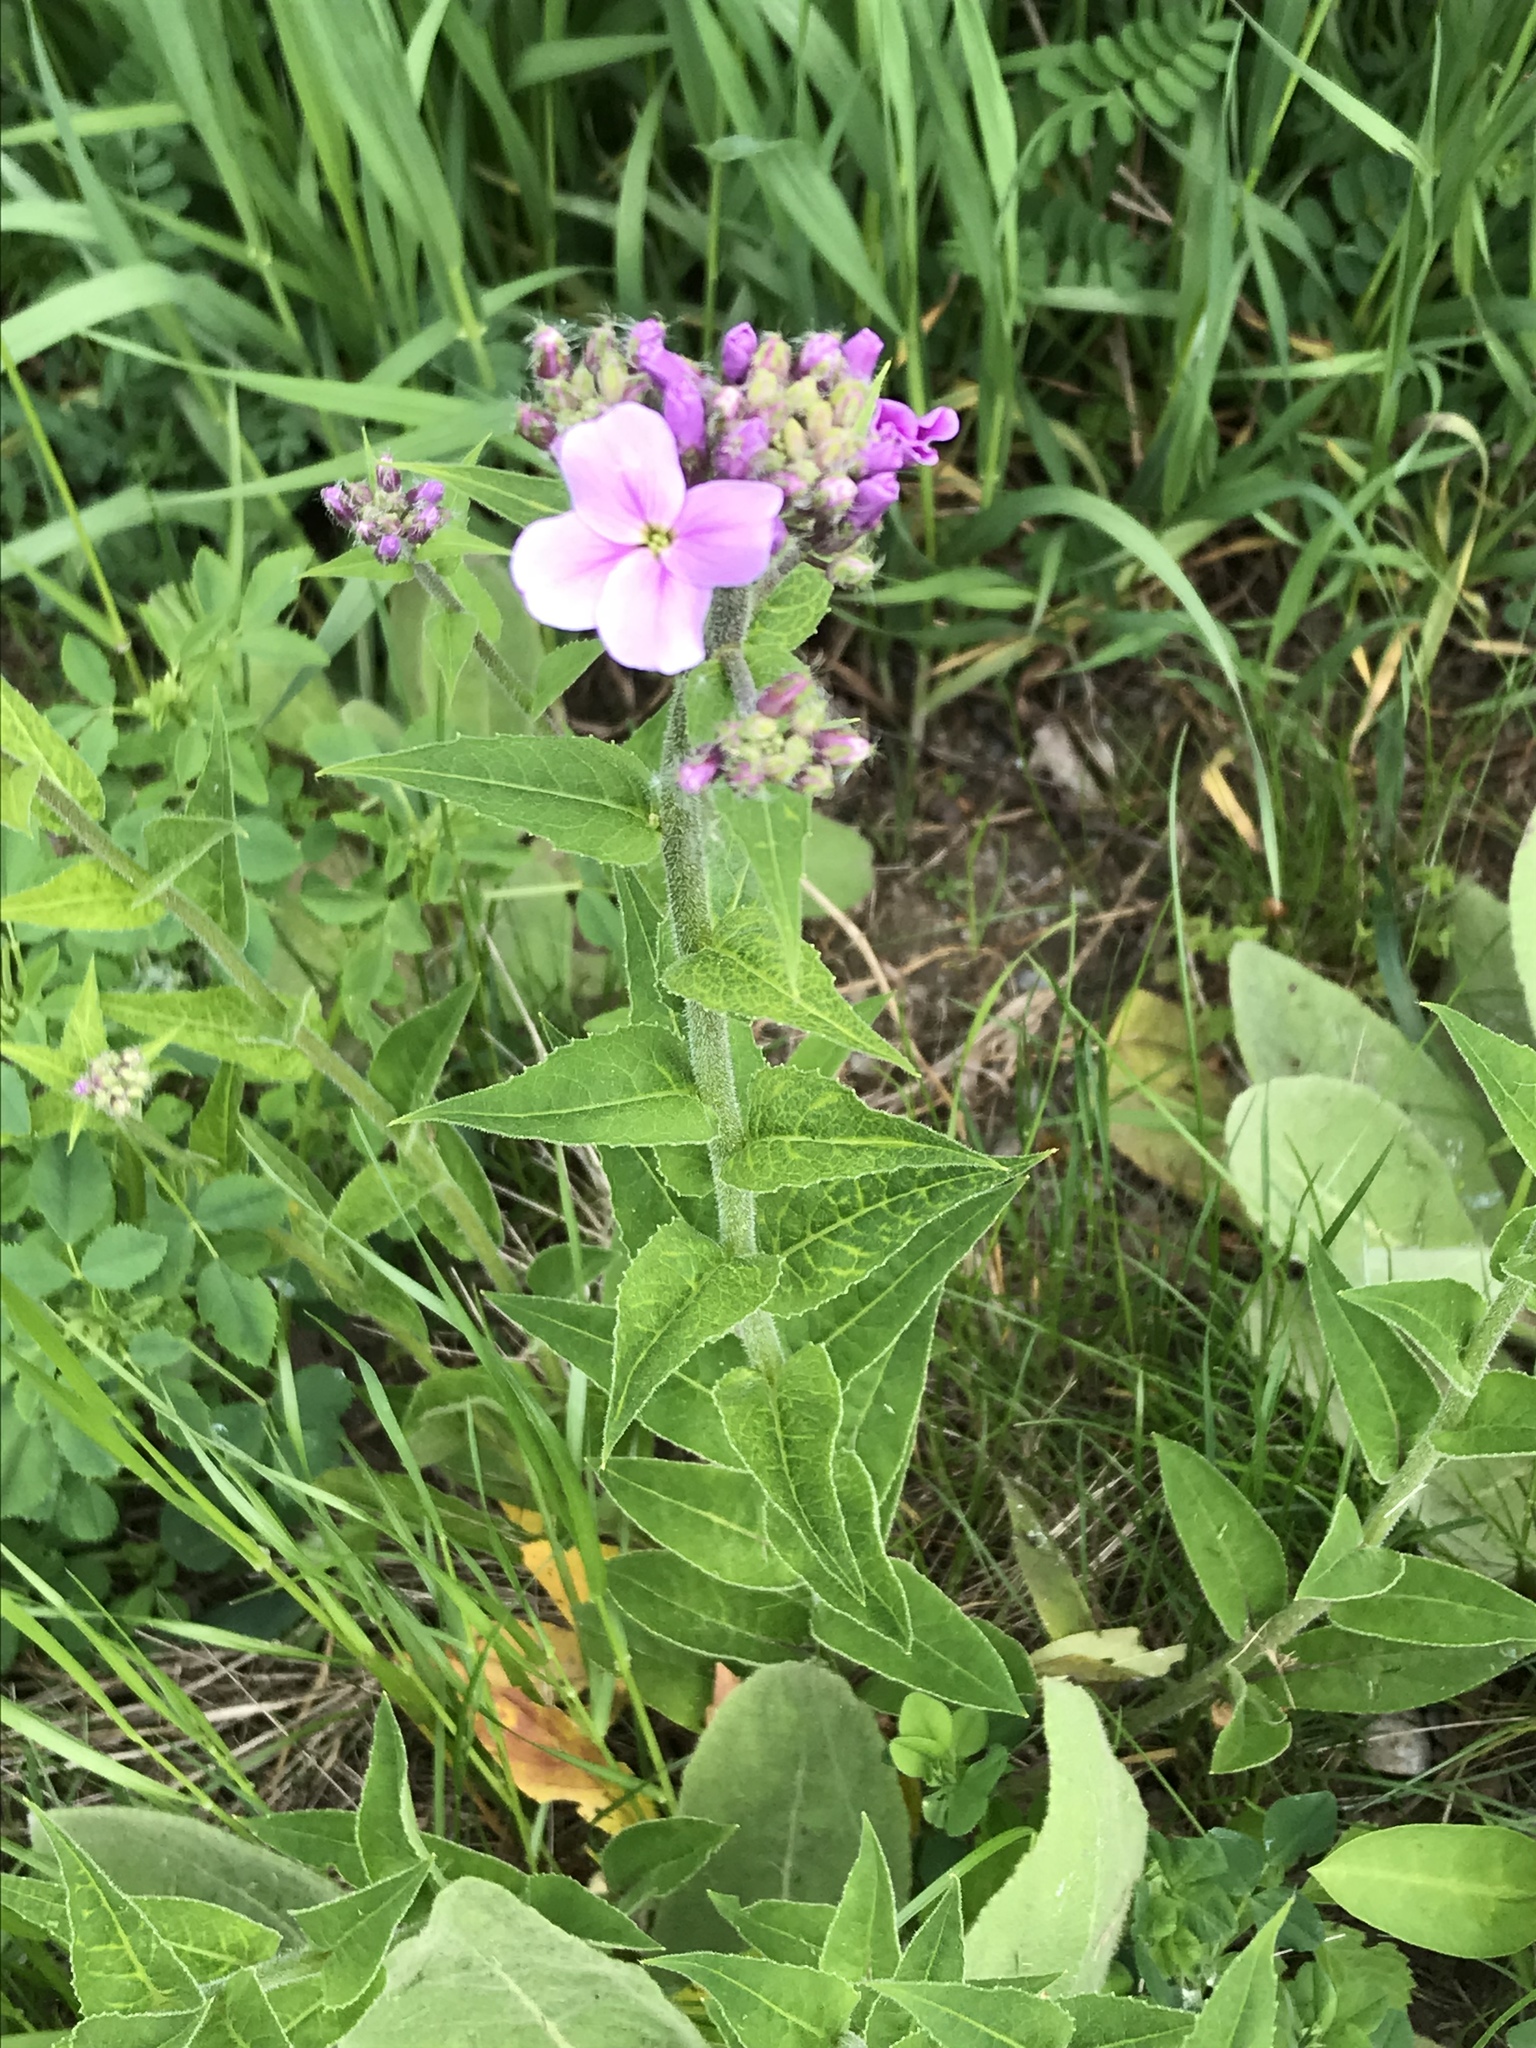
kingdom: Plantae
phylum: Tracheophyta
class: Magnoliopsida
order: Brassicales
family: Brassicaceae
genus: Hesperis
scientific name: Hesperis matronalis
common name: Dame's-violet
